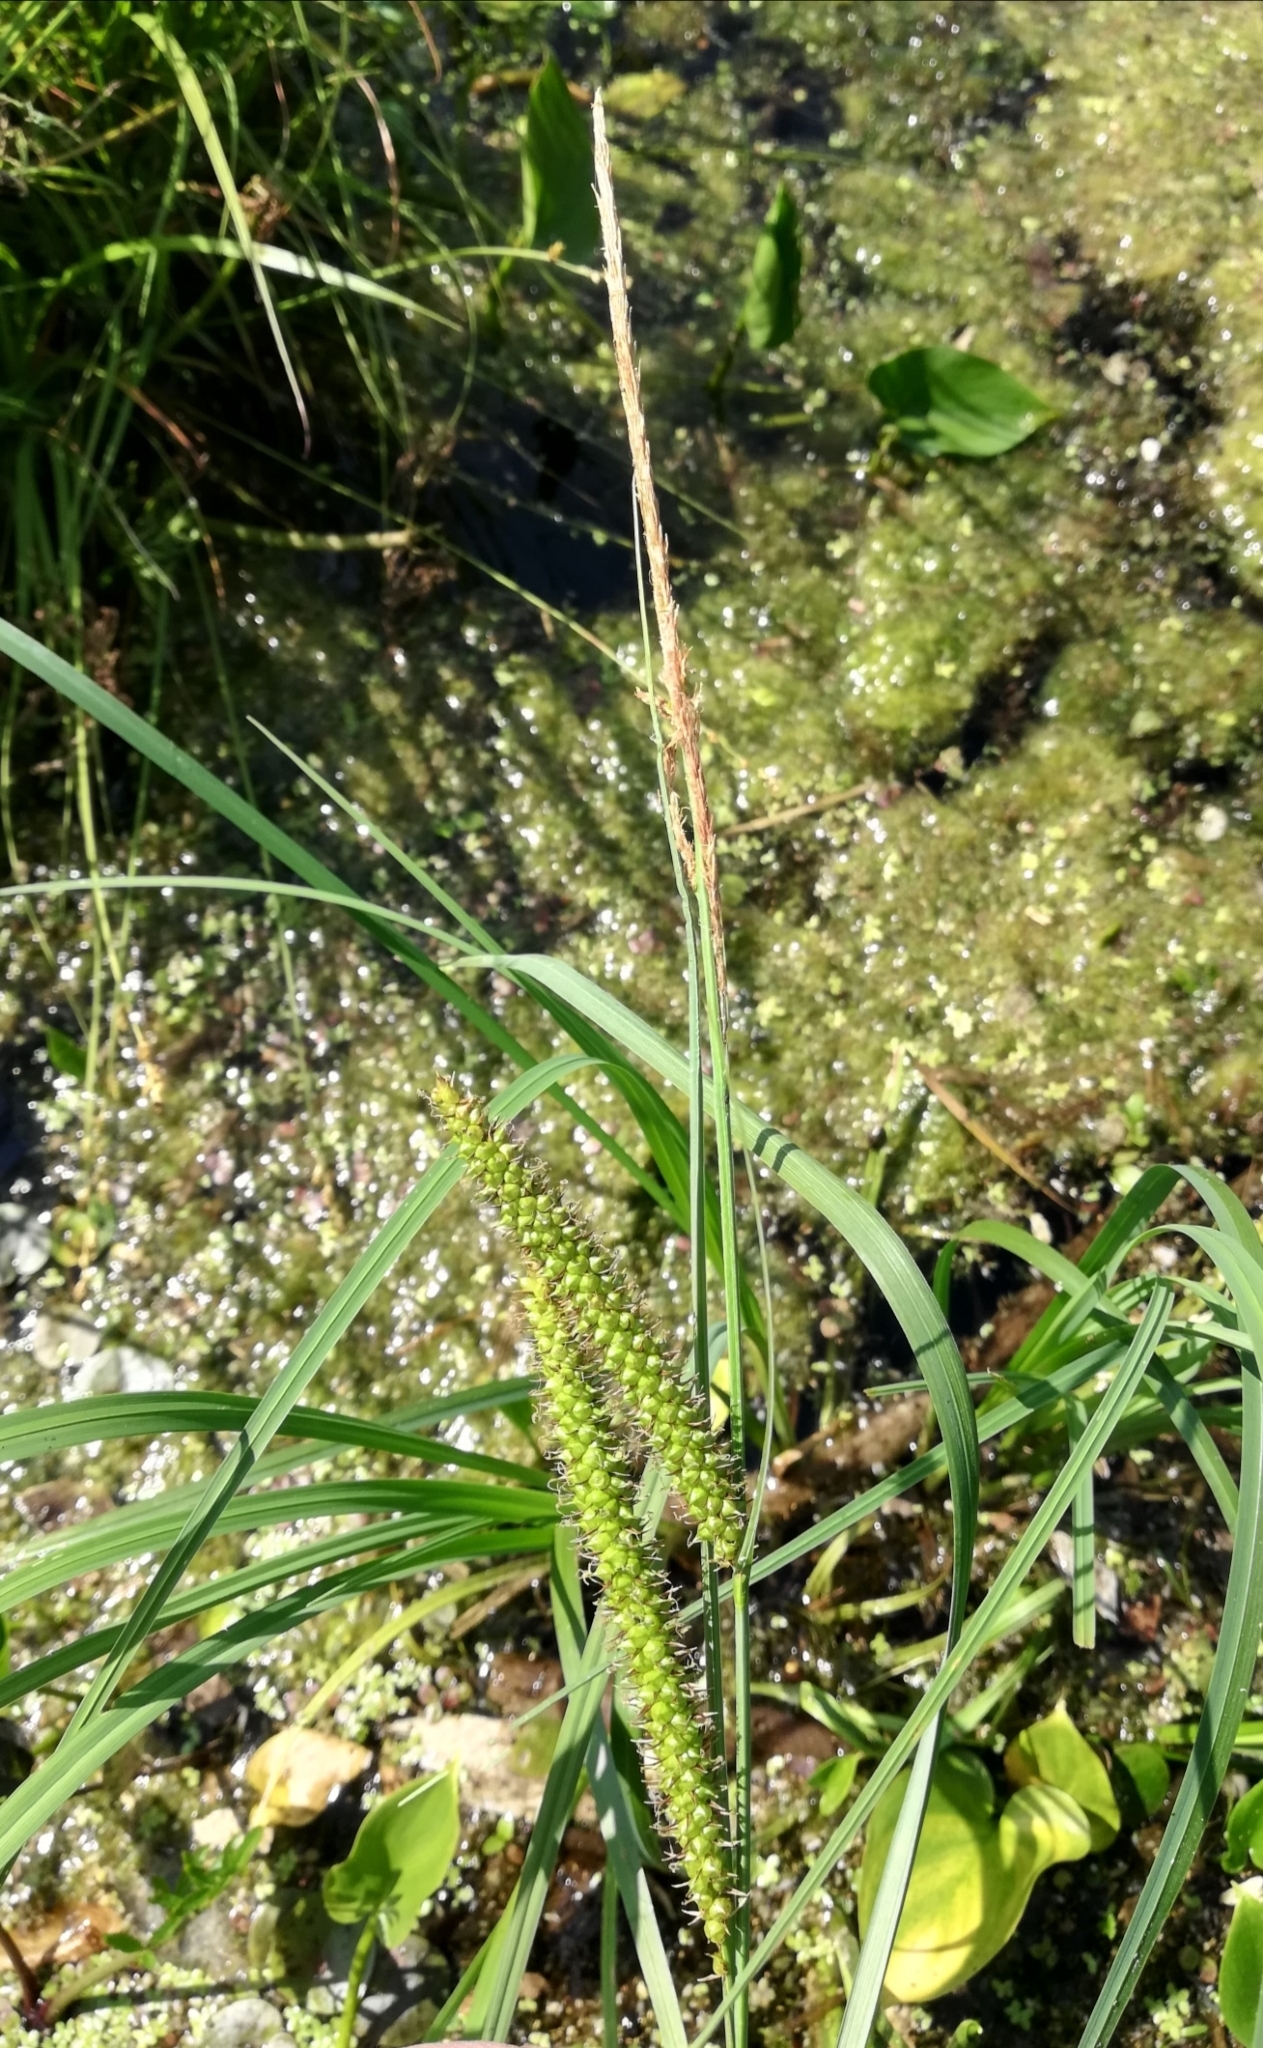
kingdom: Plantae
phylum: Tracheophyta
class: Liliopsida
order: Poales
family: Cyperaceae
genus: Carex
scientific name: Carex rostrata
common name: Bottle sedge
